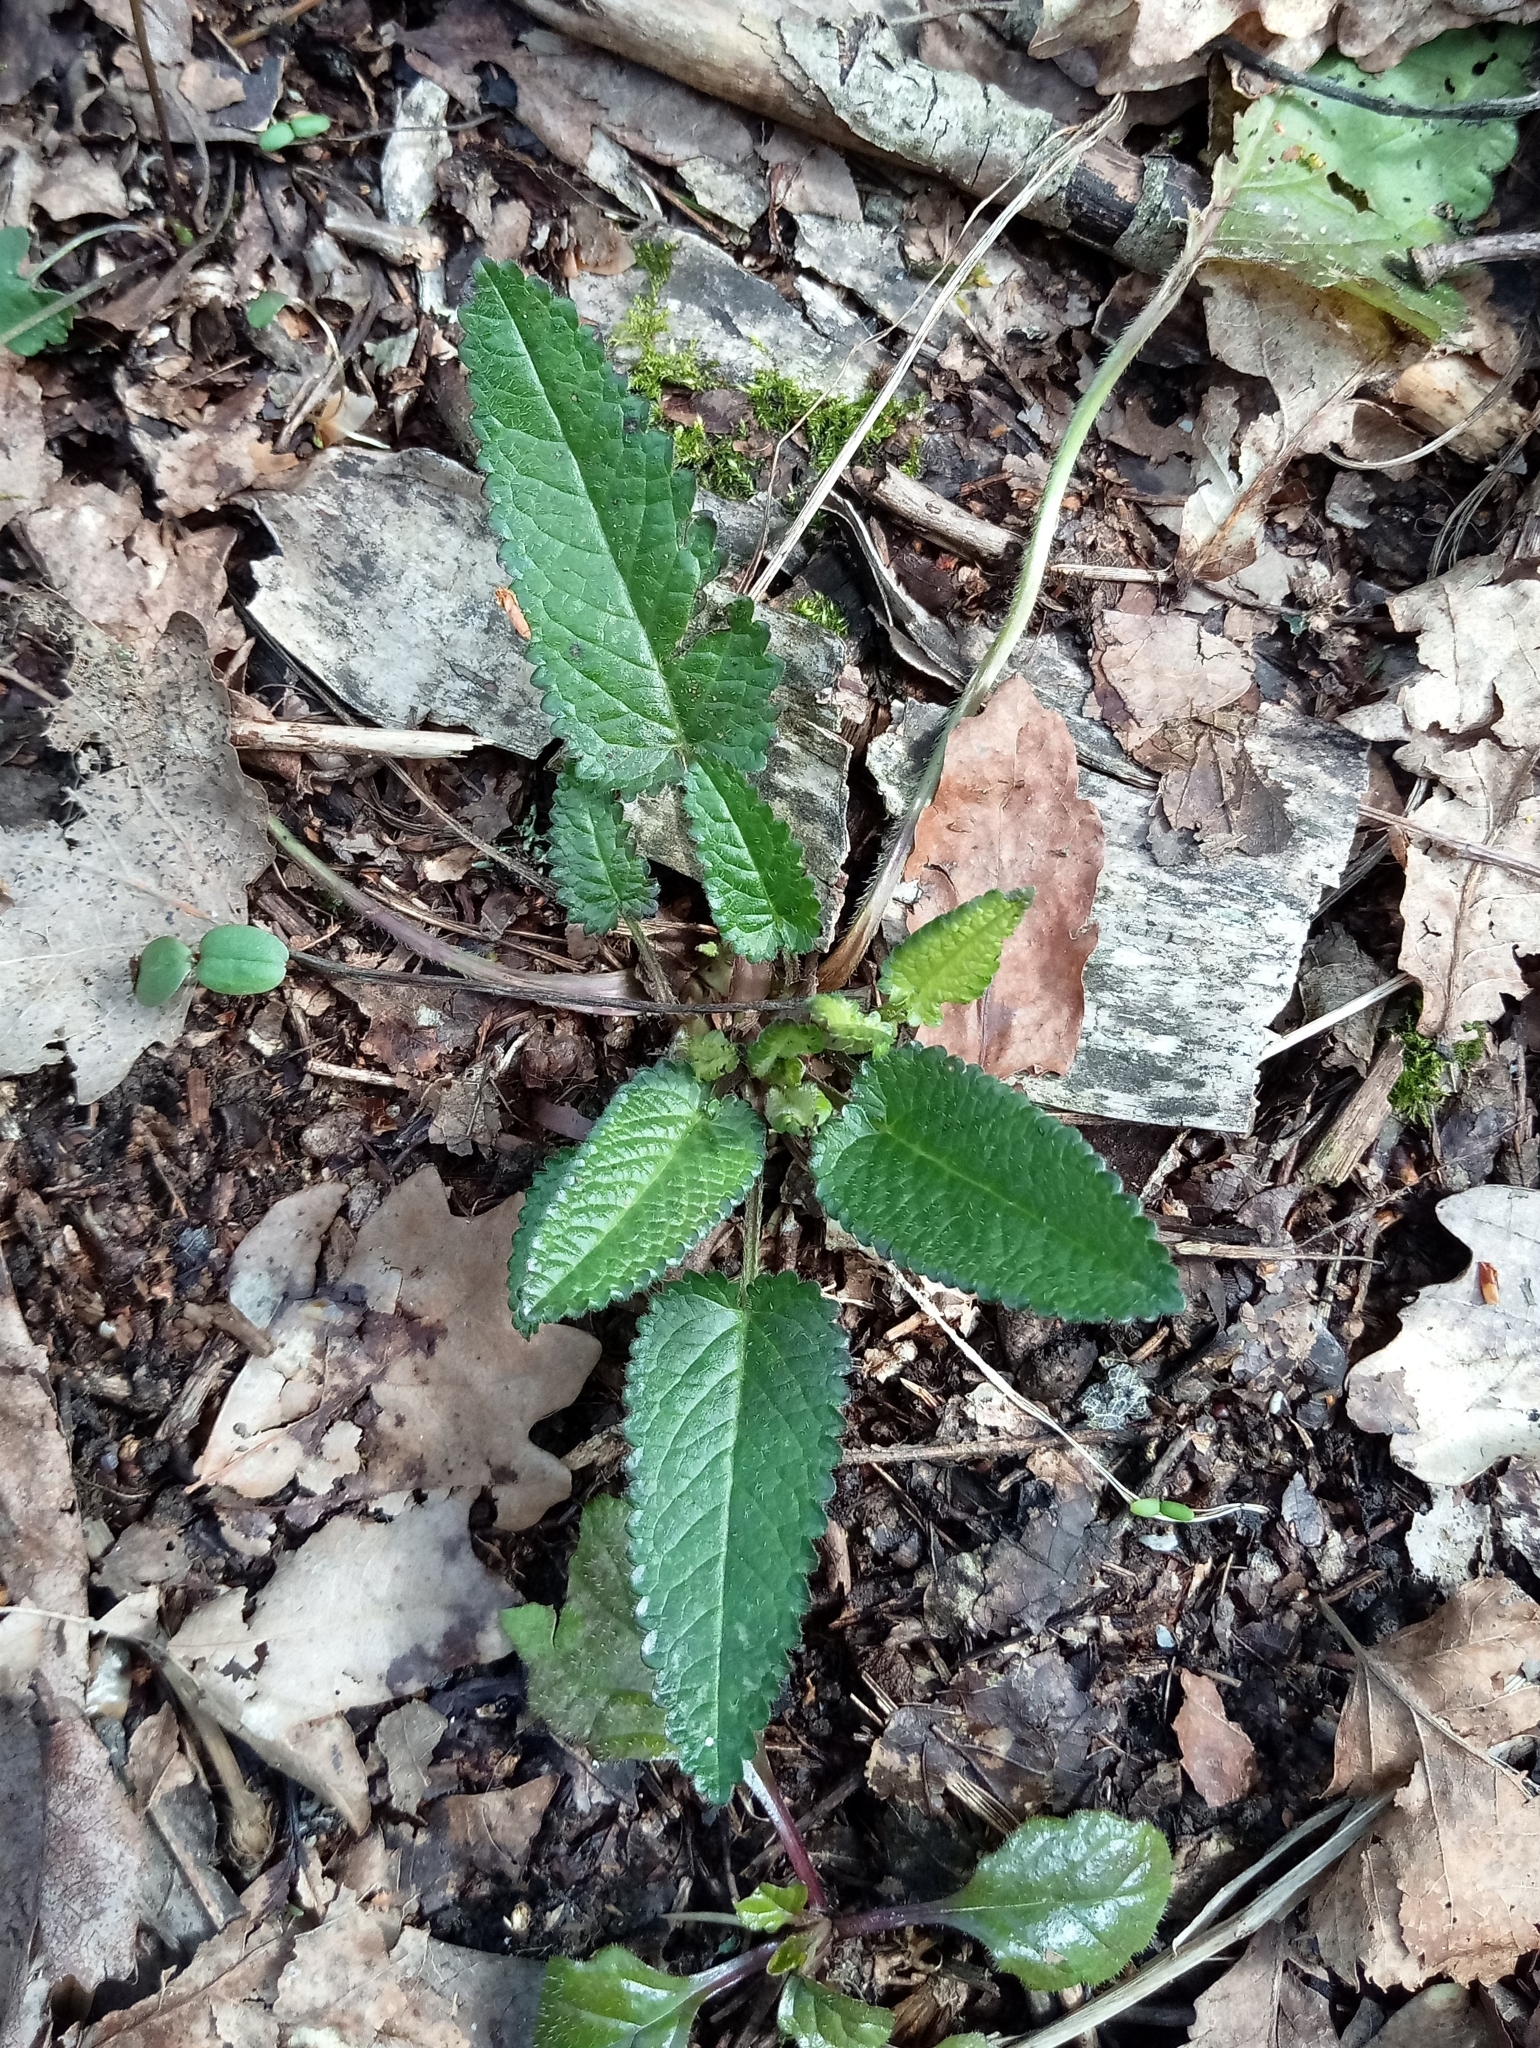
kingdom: Plantae
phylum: Tracheophyta
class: Magnoliopsida
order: Lamiales
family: Lamiaceae
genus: Betonica
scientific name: Betonica officinalis
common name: Bishop's-wort
